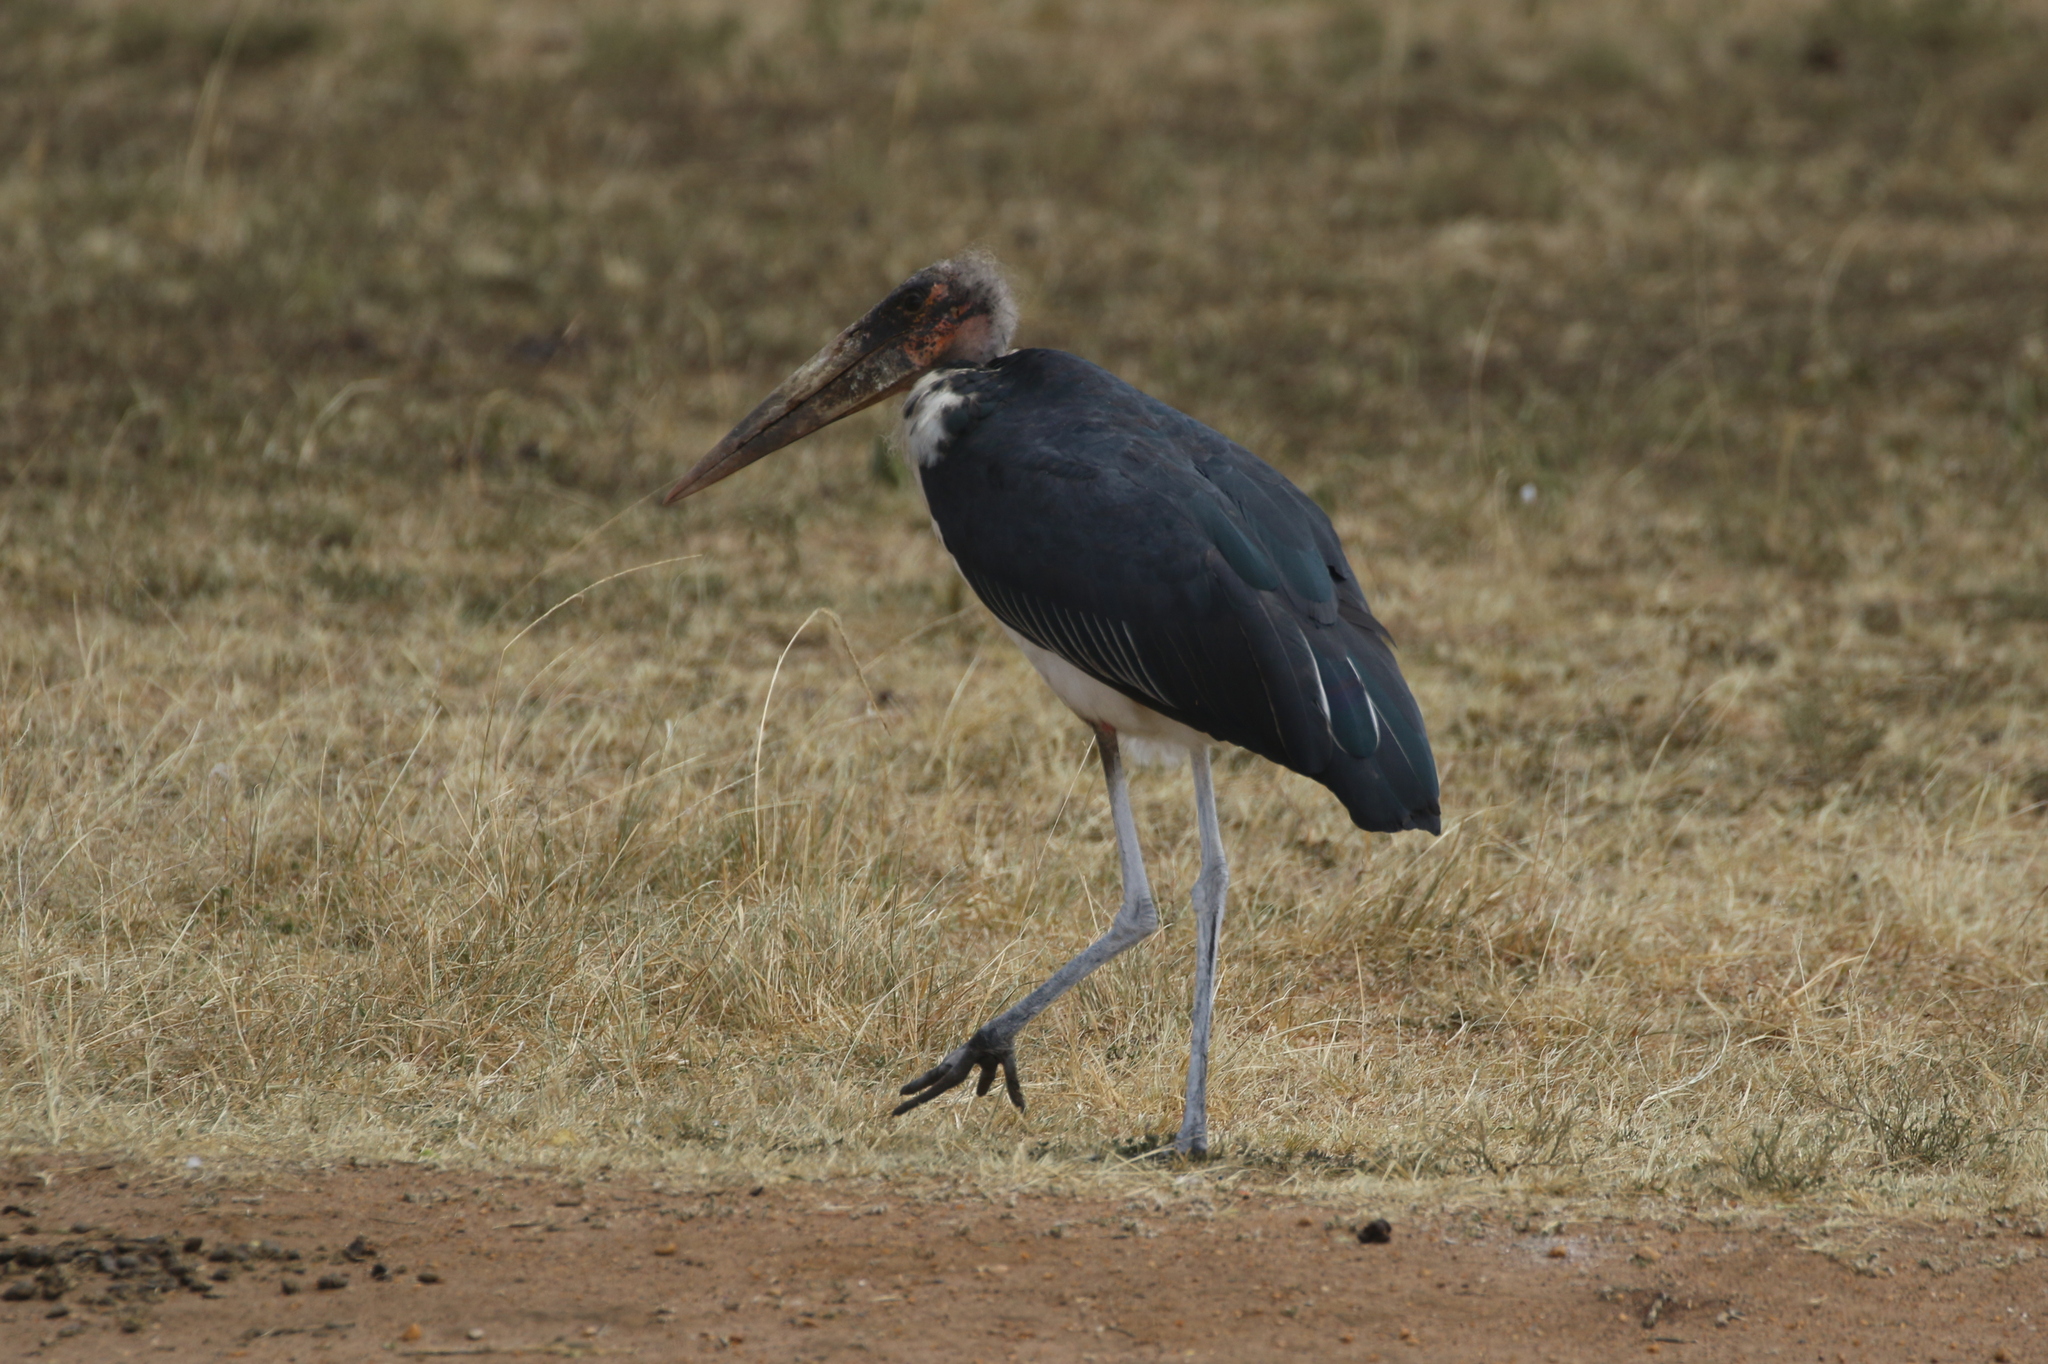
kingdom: Animalia
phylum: Chordata
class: Aves
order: Ciconiiformes
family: Ciconiidae
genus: Leptoptilos
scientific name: Leptoptilos crumenifer
